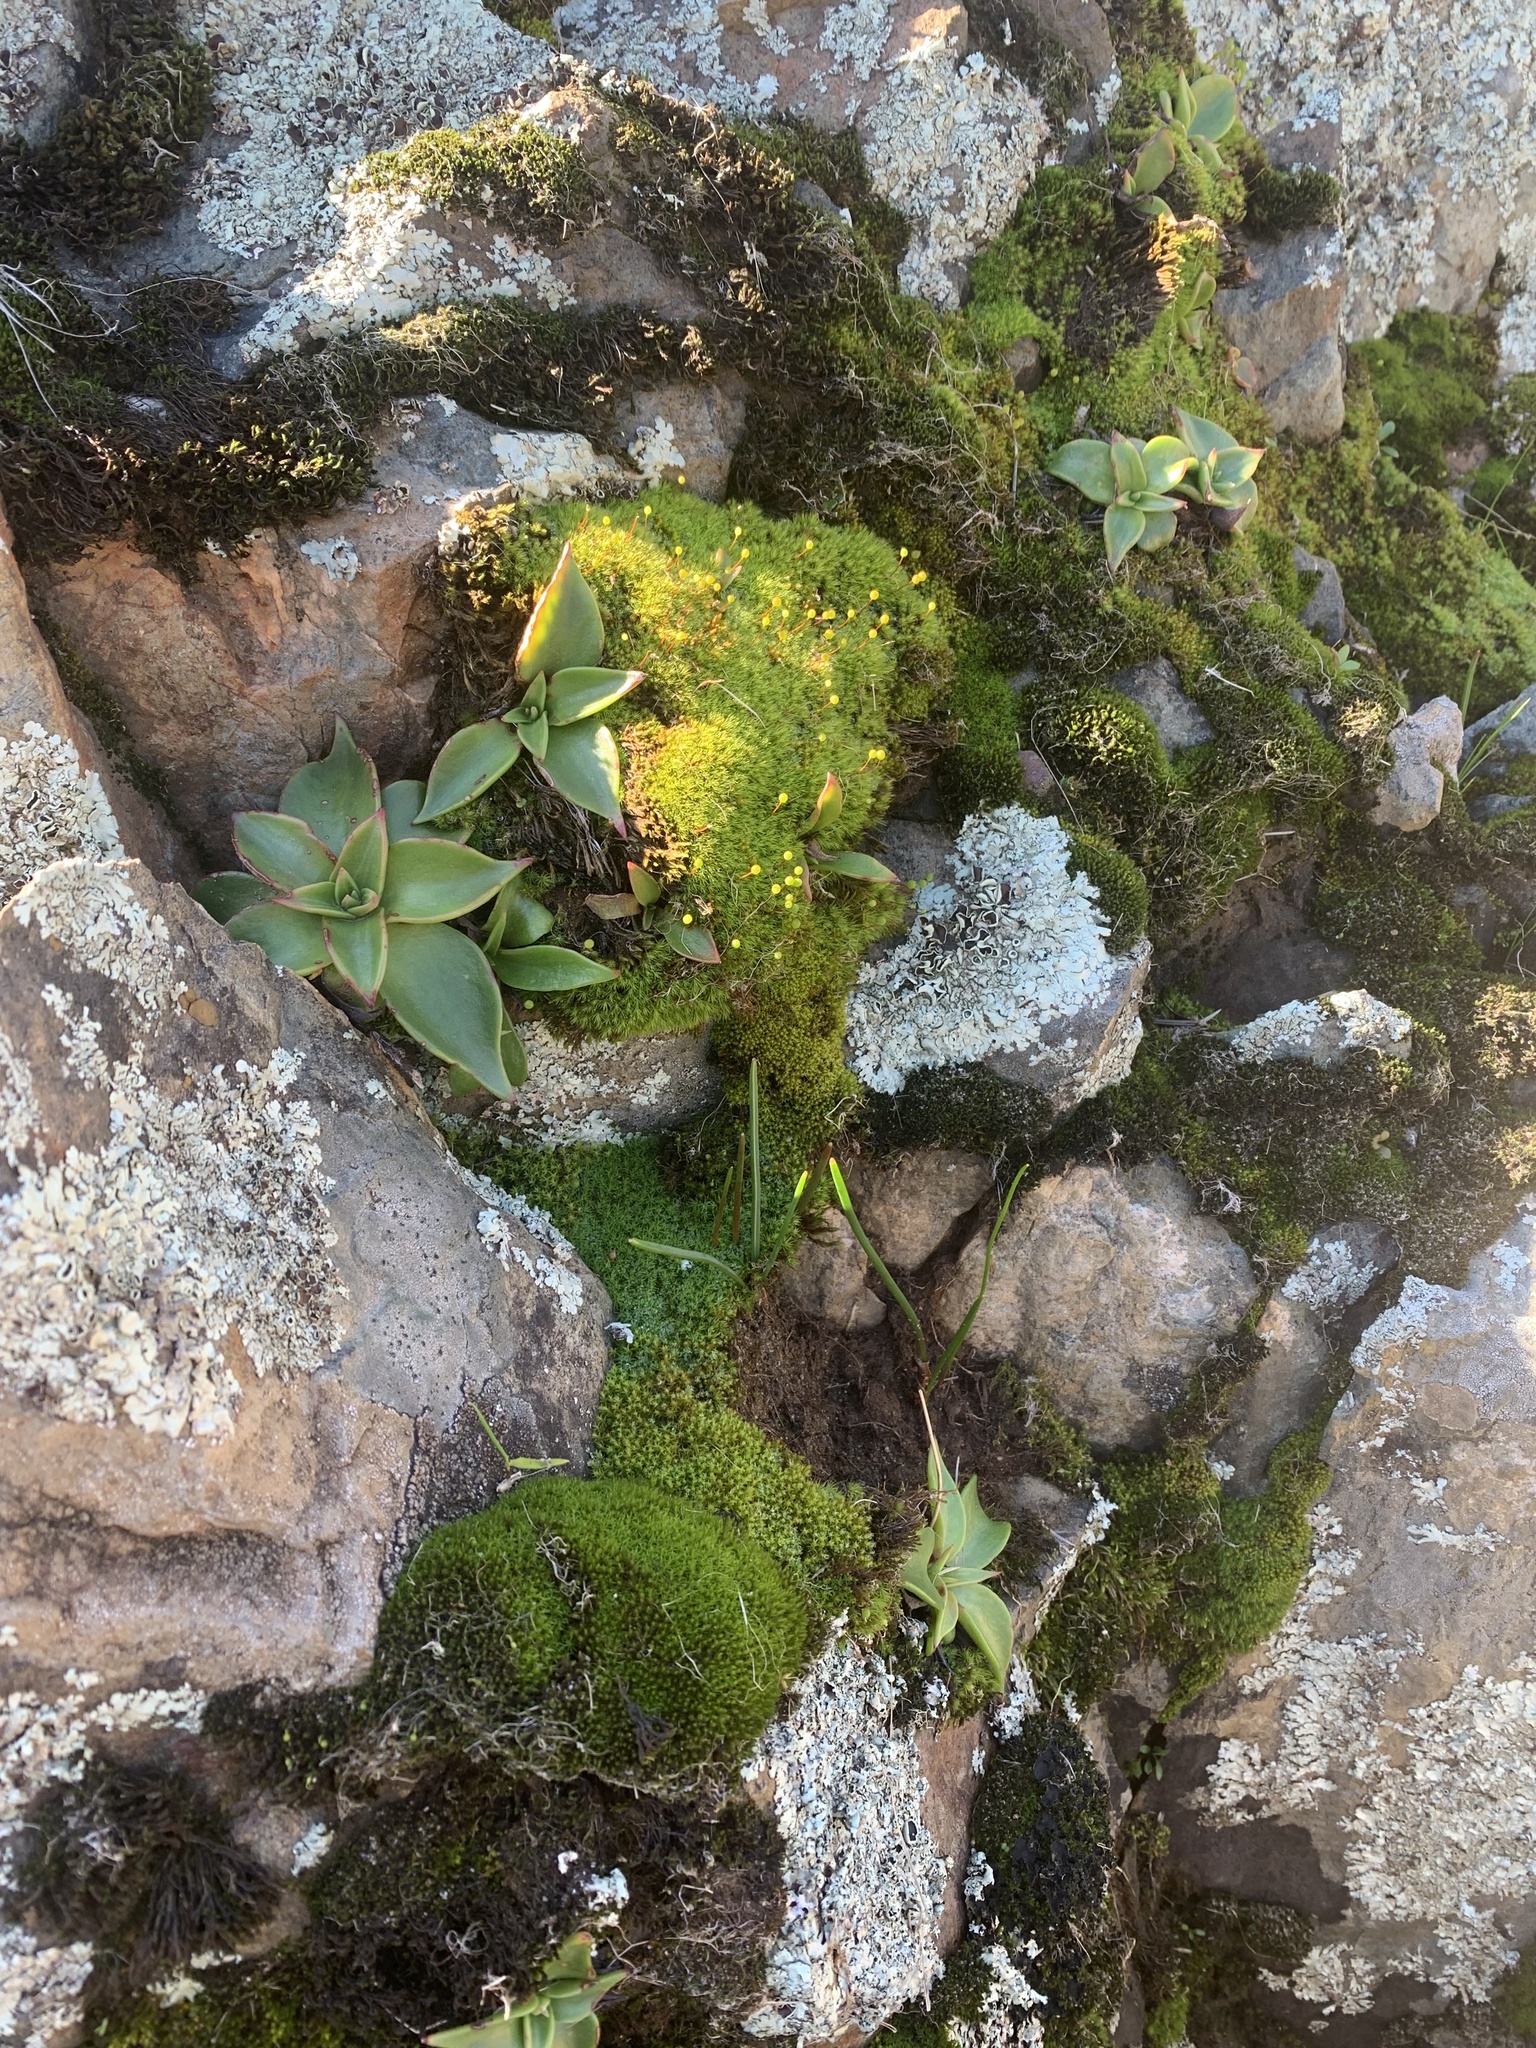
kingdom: Plantae
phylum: Tracheophyta
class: Magnoliopsida
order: Saxifragales
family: Crassulaceae
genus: Dudleya
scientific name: Dudleya cymosa
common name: Canyon dudleya
